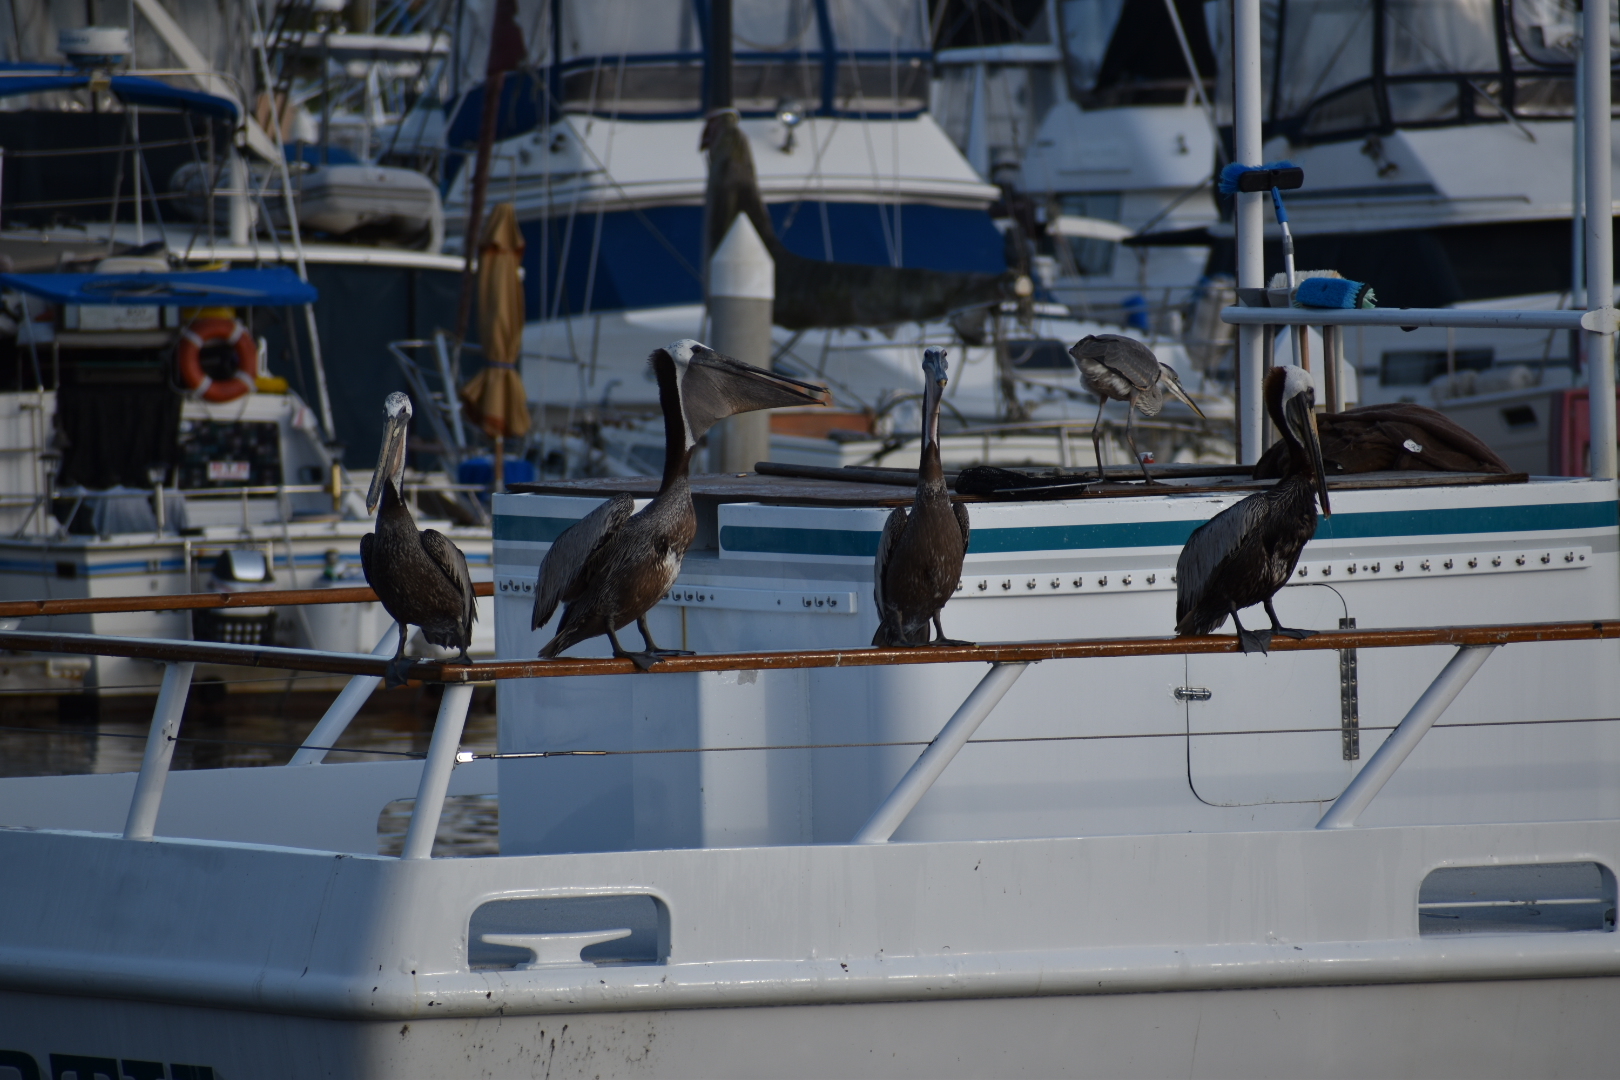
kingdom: Animalia
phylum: Chordata
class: Aves
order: Pelecaniformes
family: Pelecanidae
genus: Pelecanus
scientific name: Pelecanus occidentalis
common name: Brown pelican
